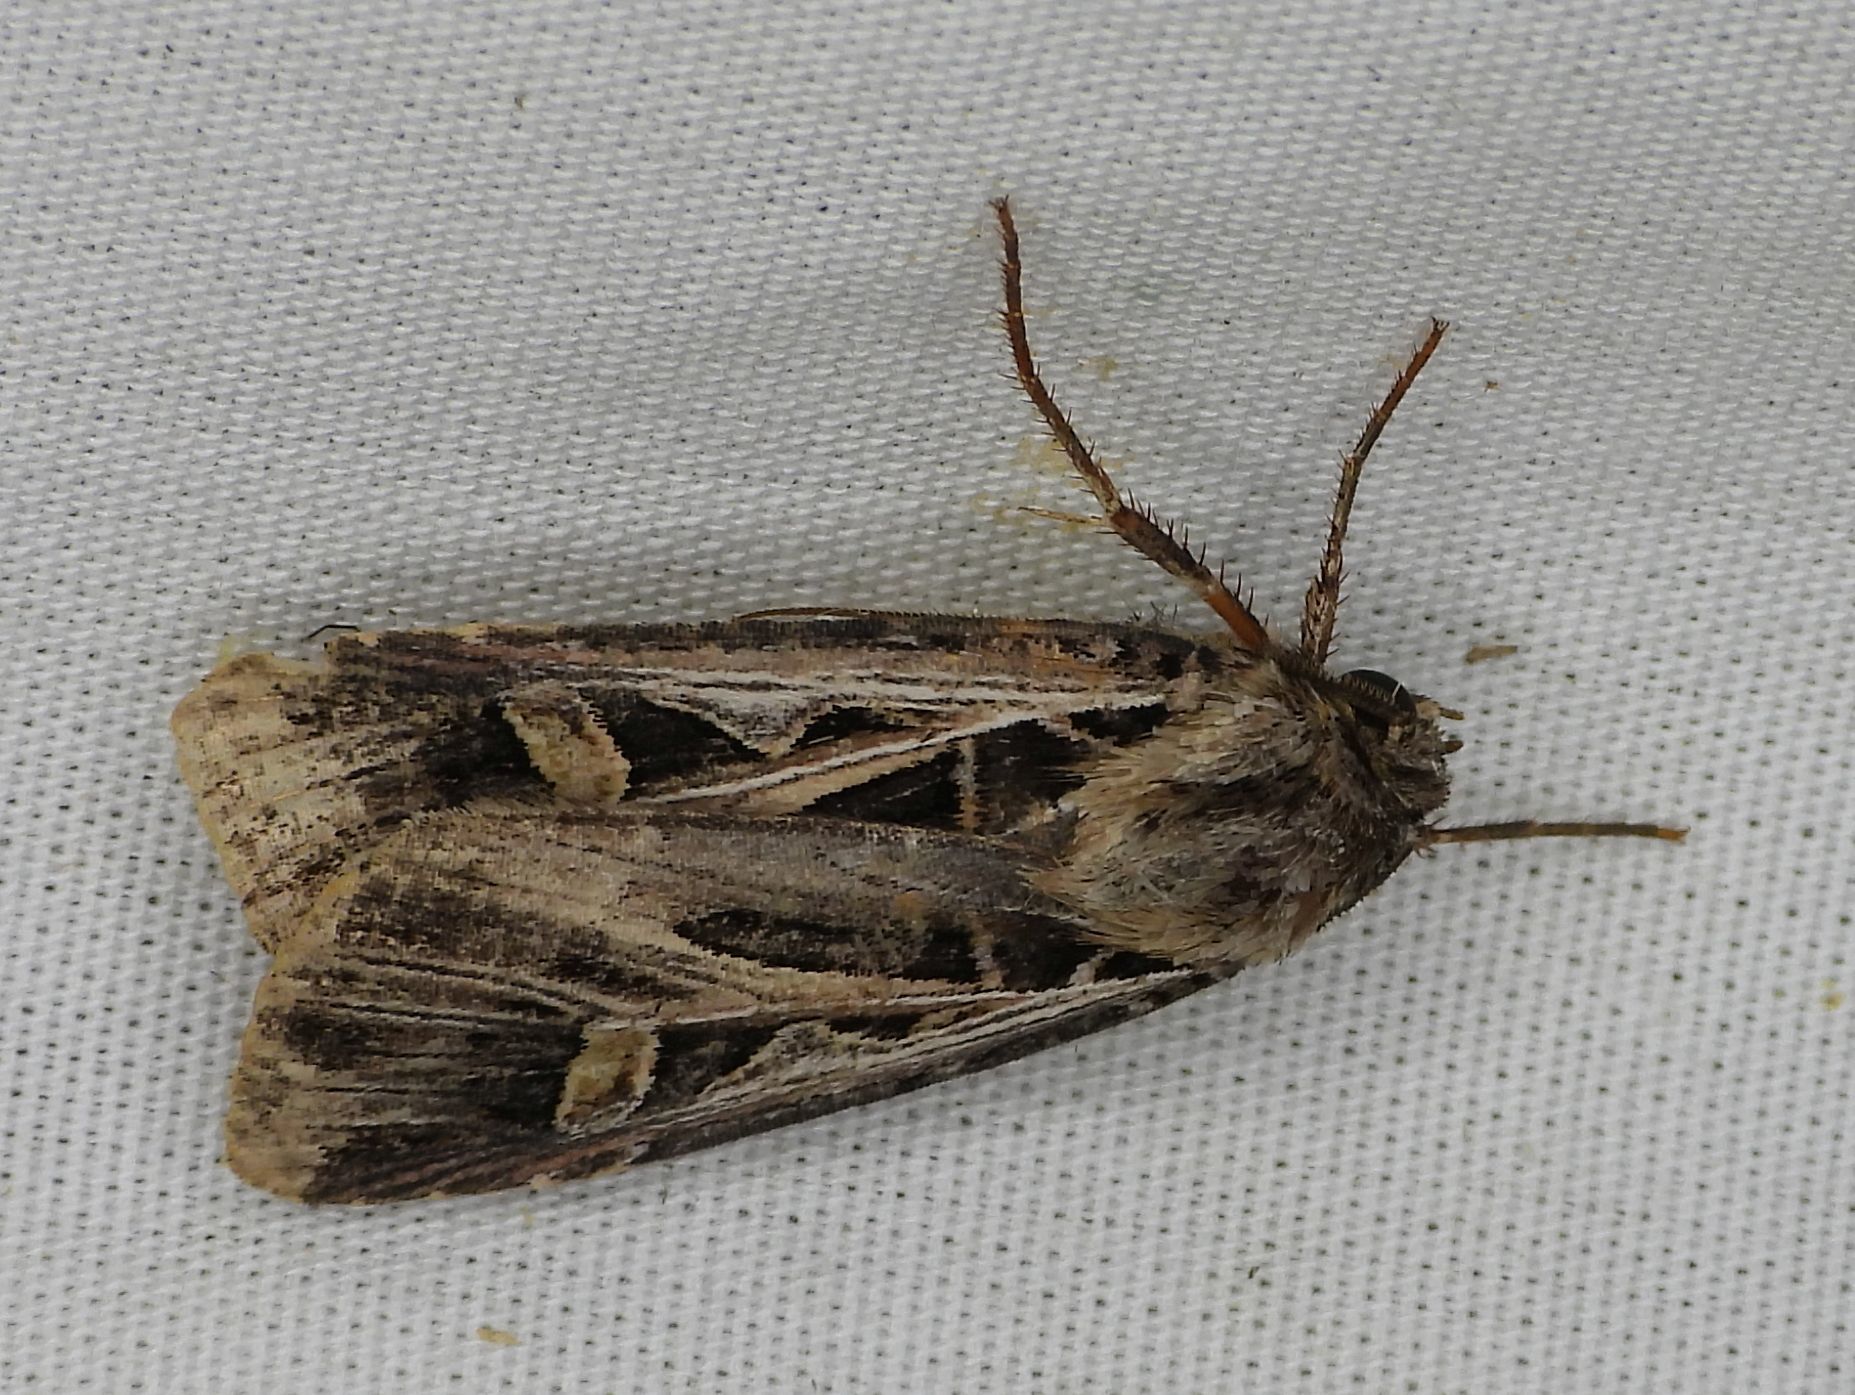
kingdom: Animalia
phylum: Arthropoda
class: Insecta
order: Lepidoptera
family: Noctuidae
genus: Feltia
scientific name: Feltia jaculifera
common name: Dingy cutworm moth
